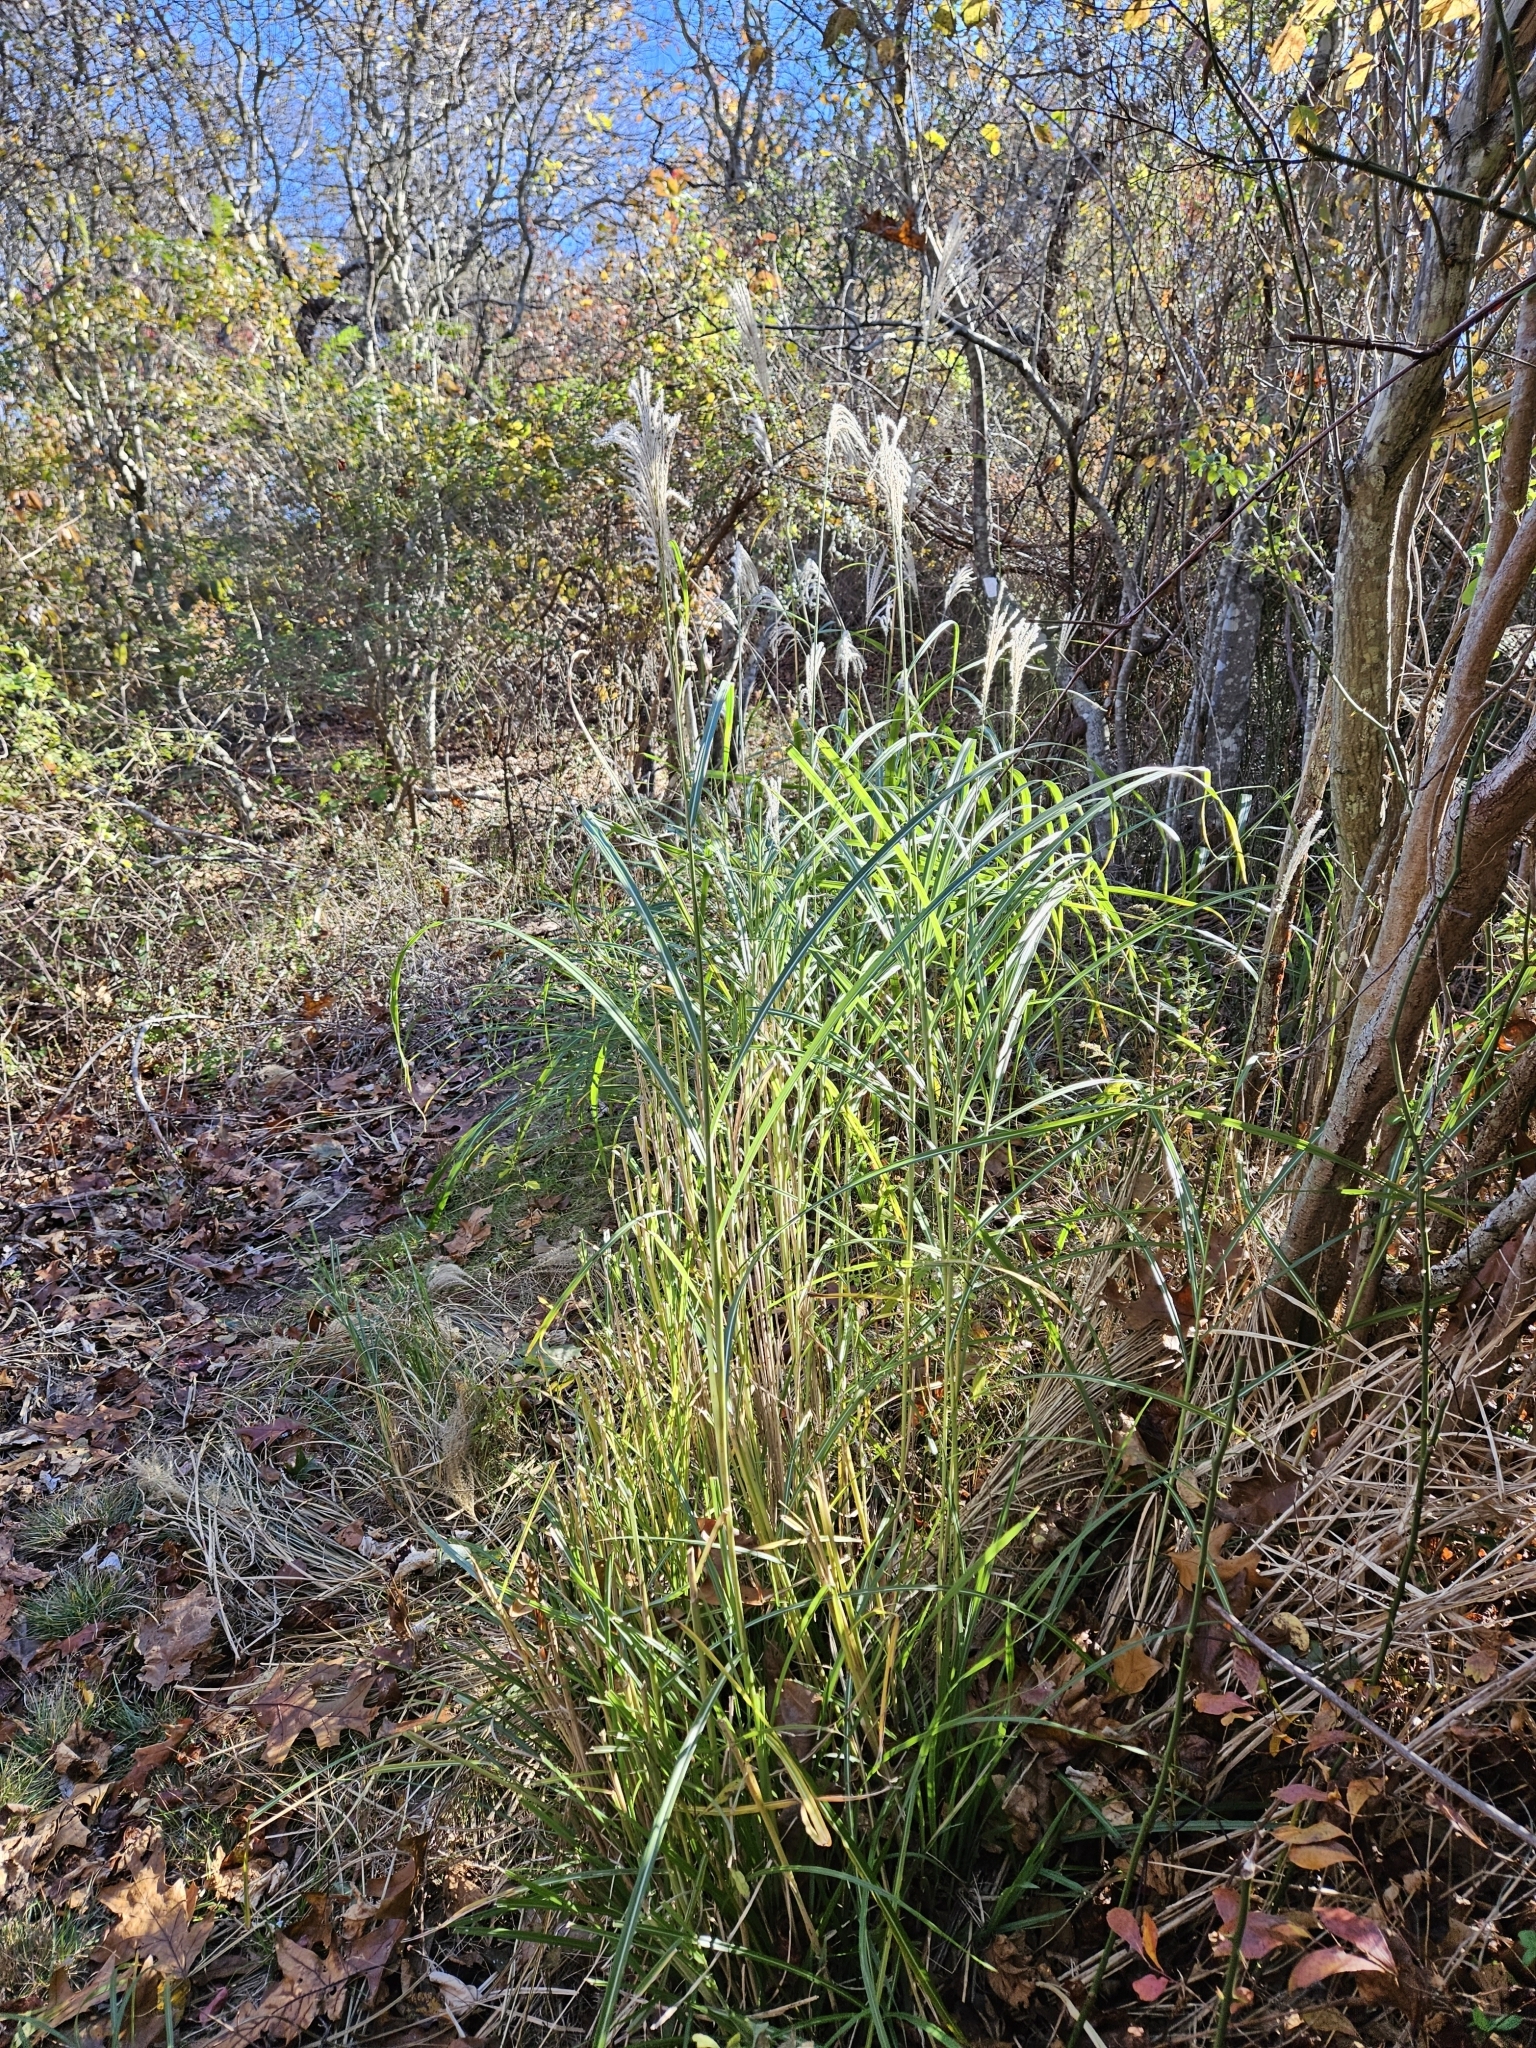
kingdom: Plantae
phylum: Tracheophyta
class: Liliopsida
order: Poales
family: Poaceae
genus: Miscanthus
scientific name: Miscanthus sinensis
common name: Chinese silvergrass
